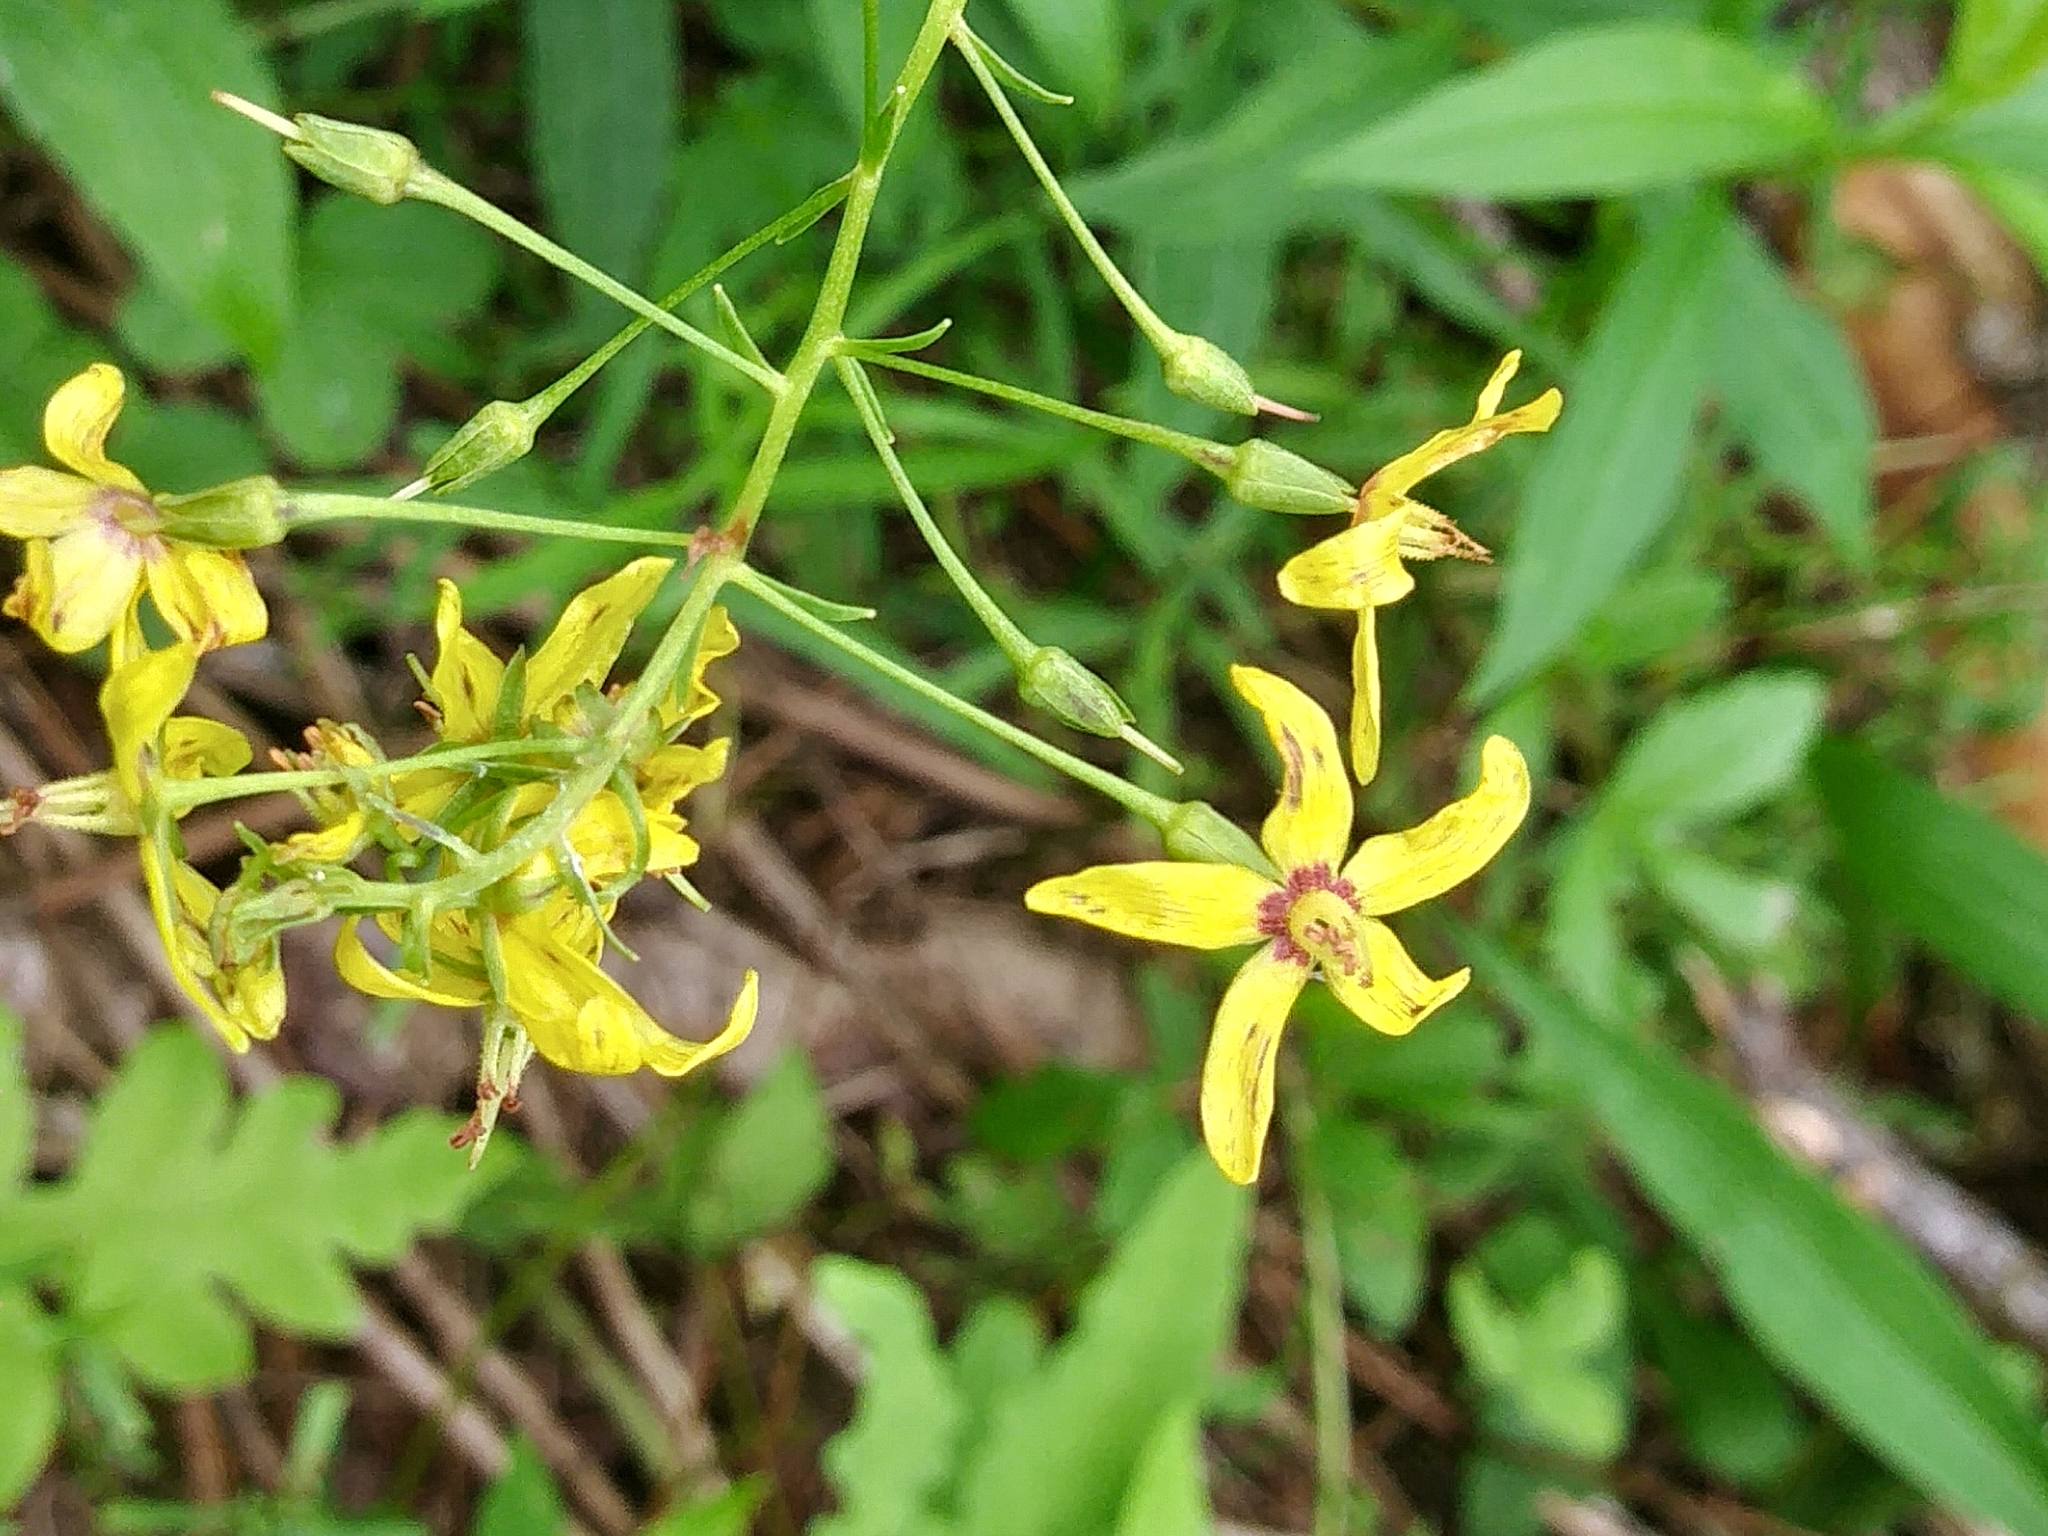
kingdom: Plantae
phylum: Tracheophyta
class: Magnoliopsida
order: Ericales
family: Primulaceae
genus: Lysimachia
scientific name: Lysimachia terrestris
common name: Lake loosestrife
